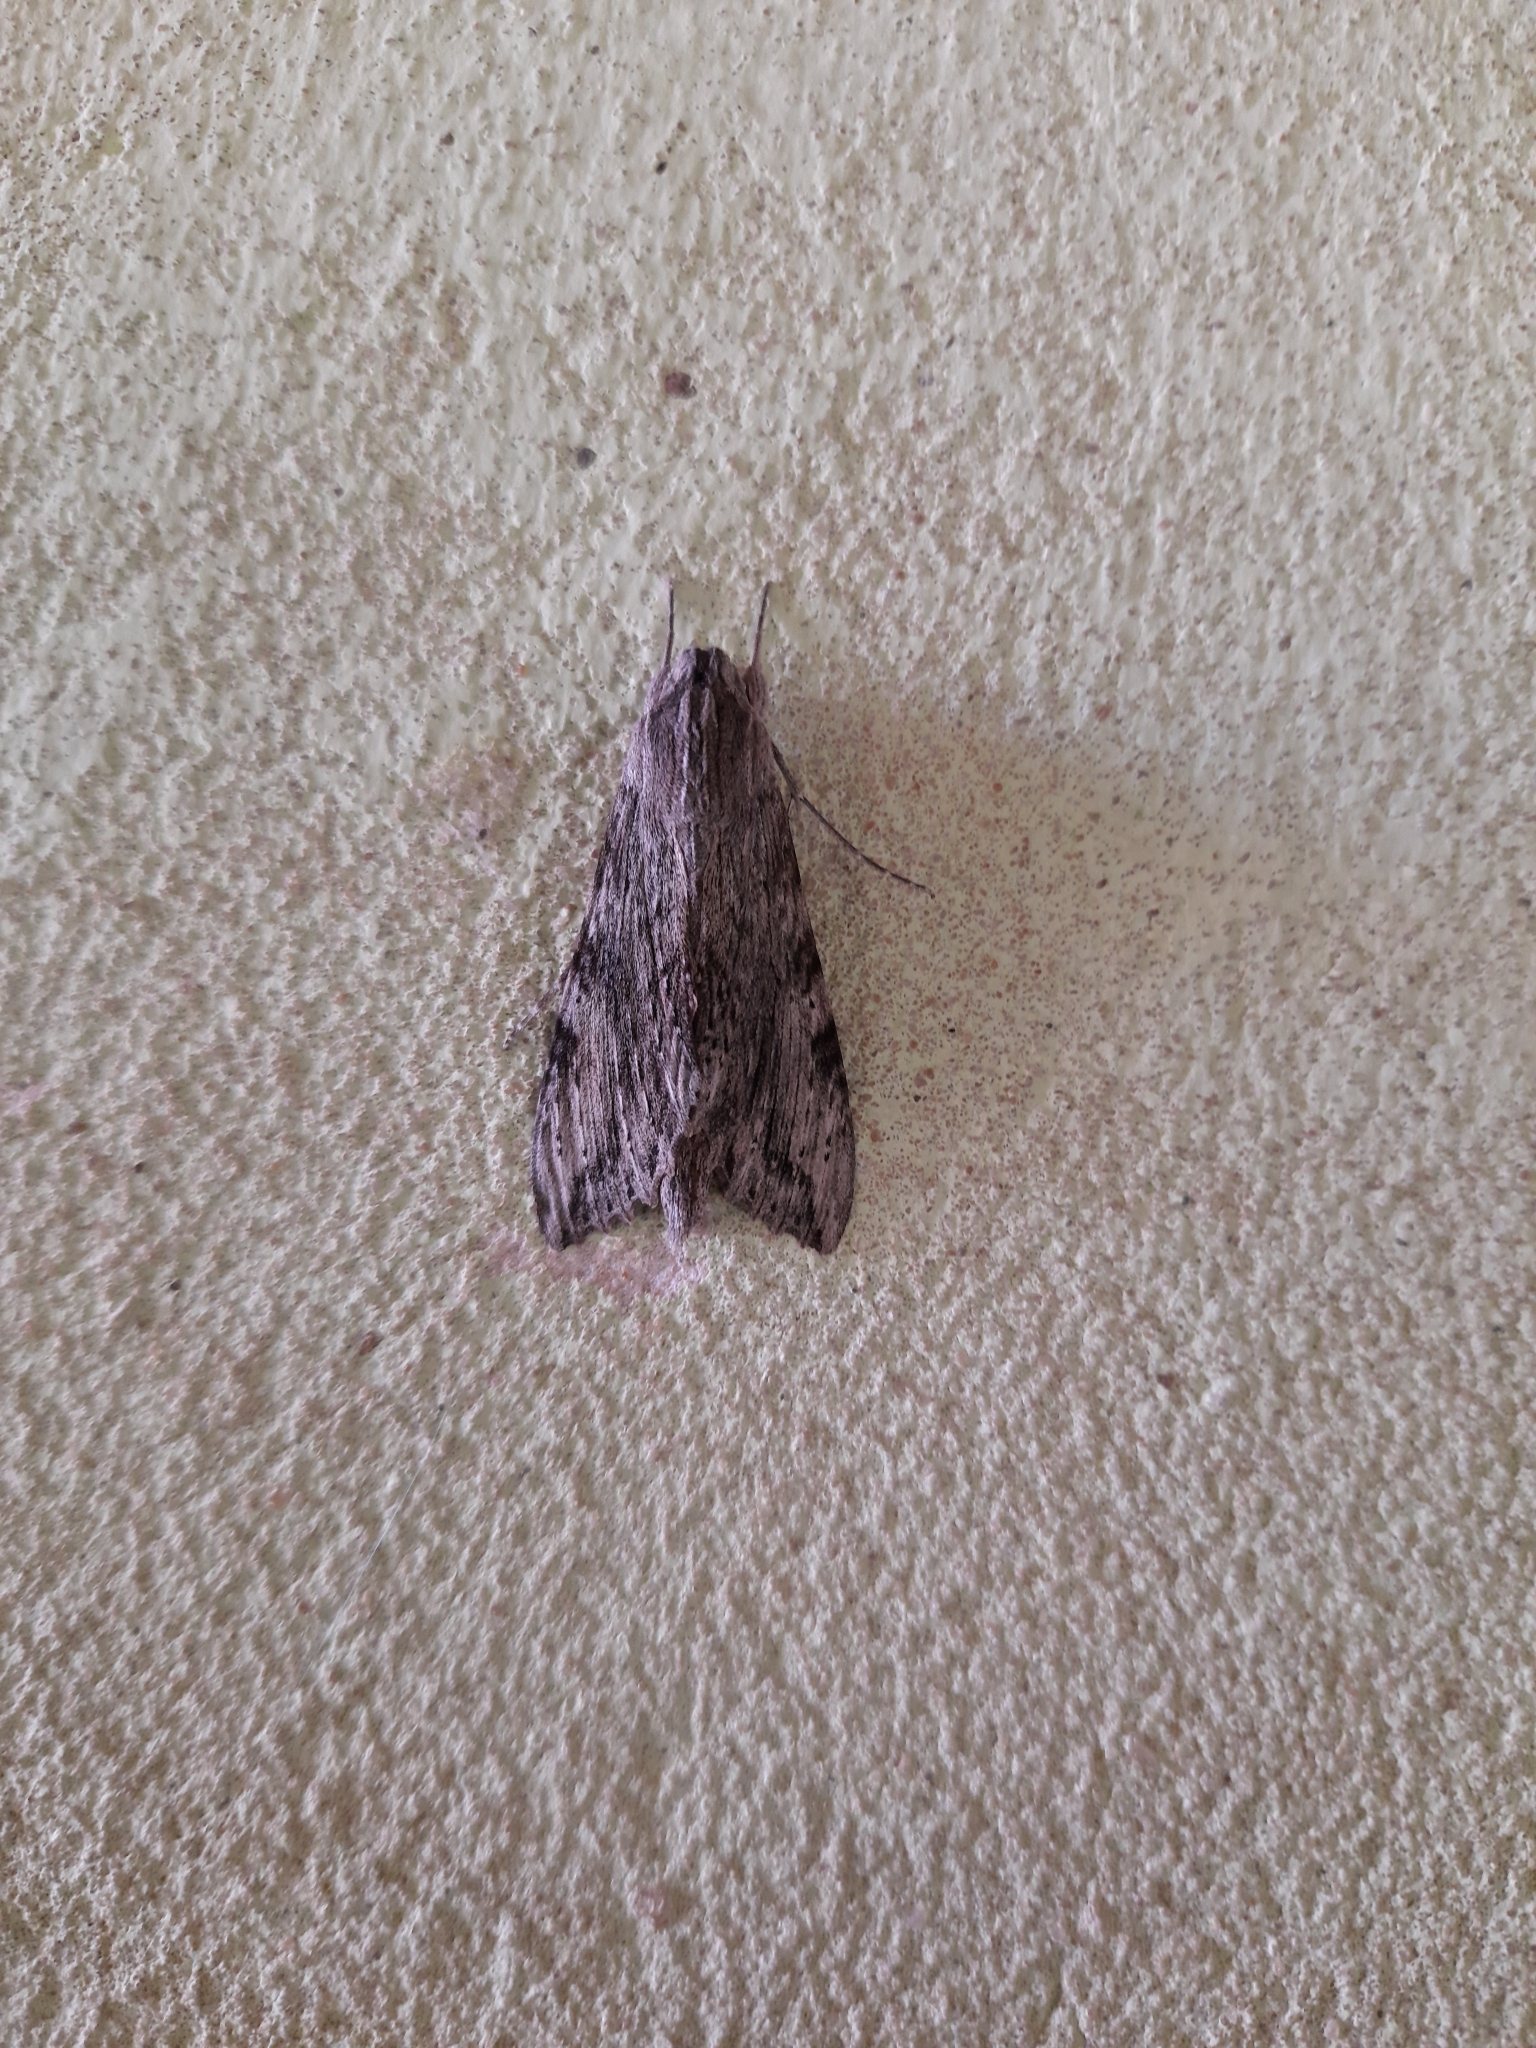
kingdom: Animalia
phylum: Arthropoda
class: Insecta
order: Lepidoptera
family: Sphingidae
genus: Erinnyis
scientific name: Erinnyis obscura
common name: Obscure sphinx
